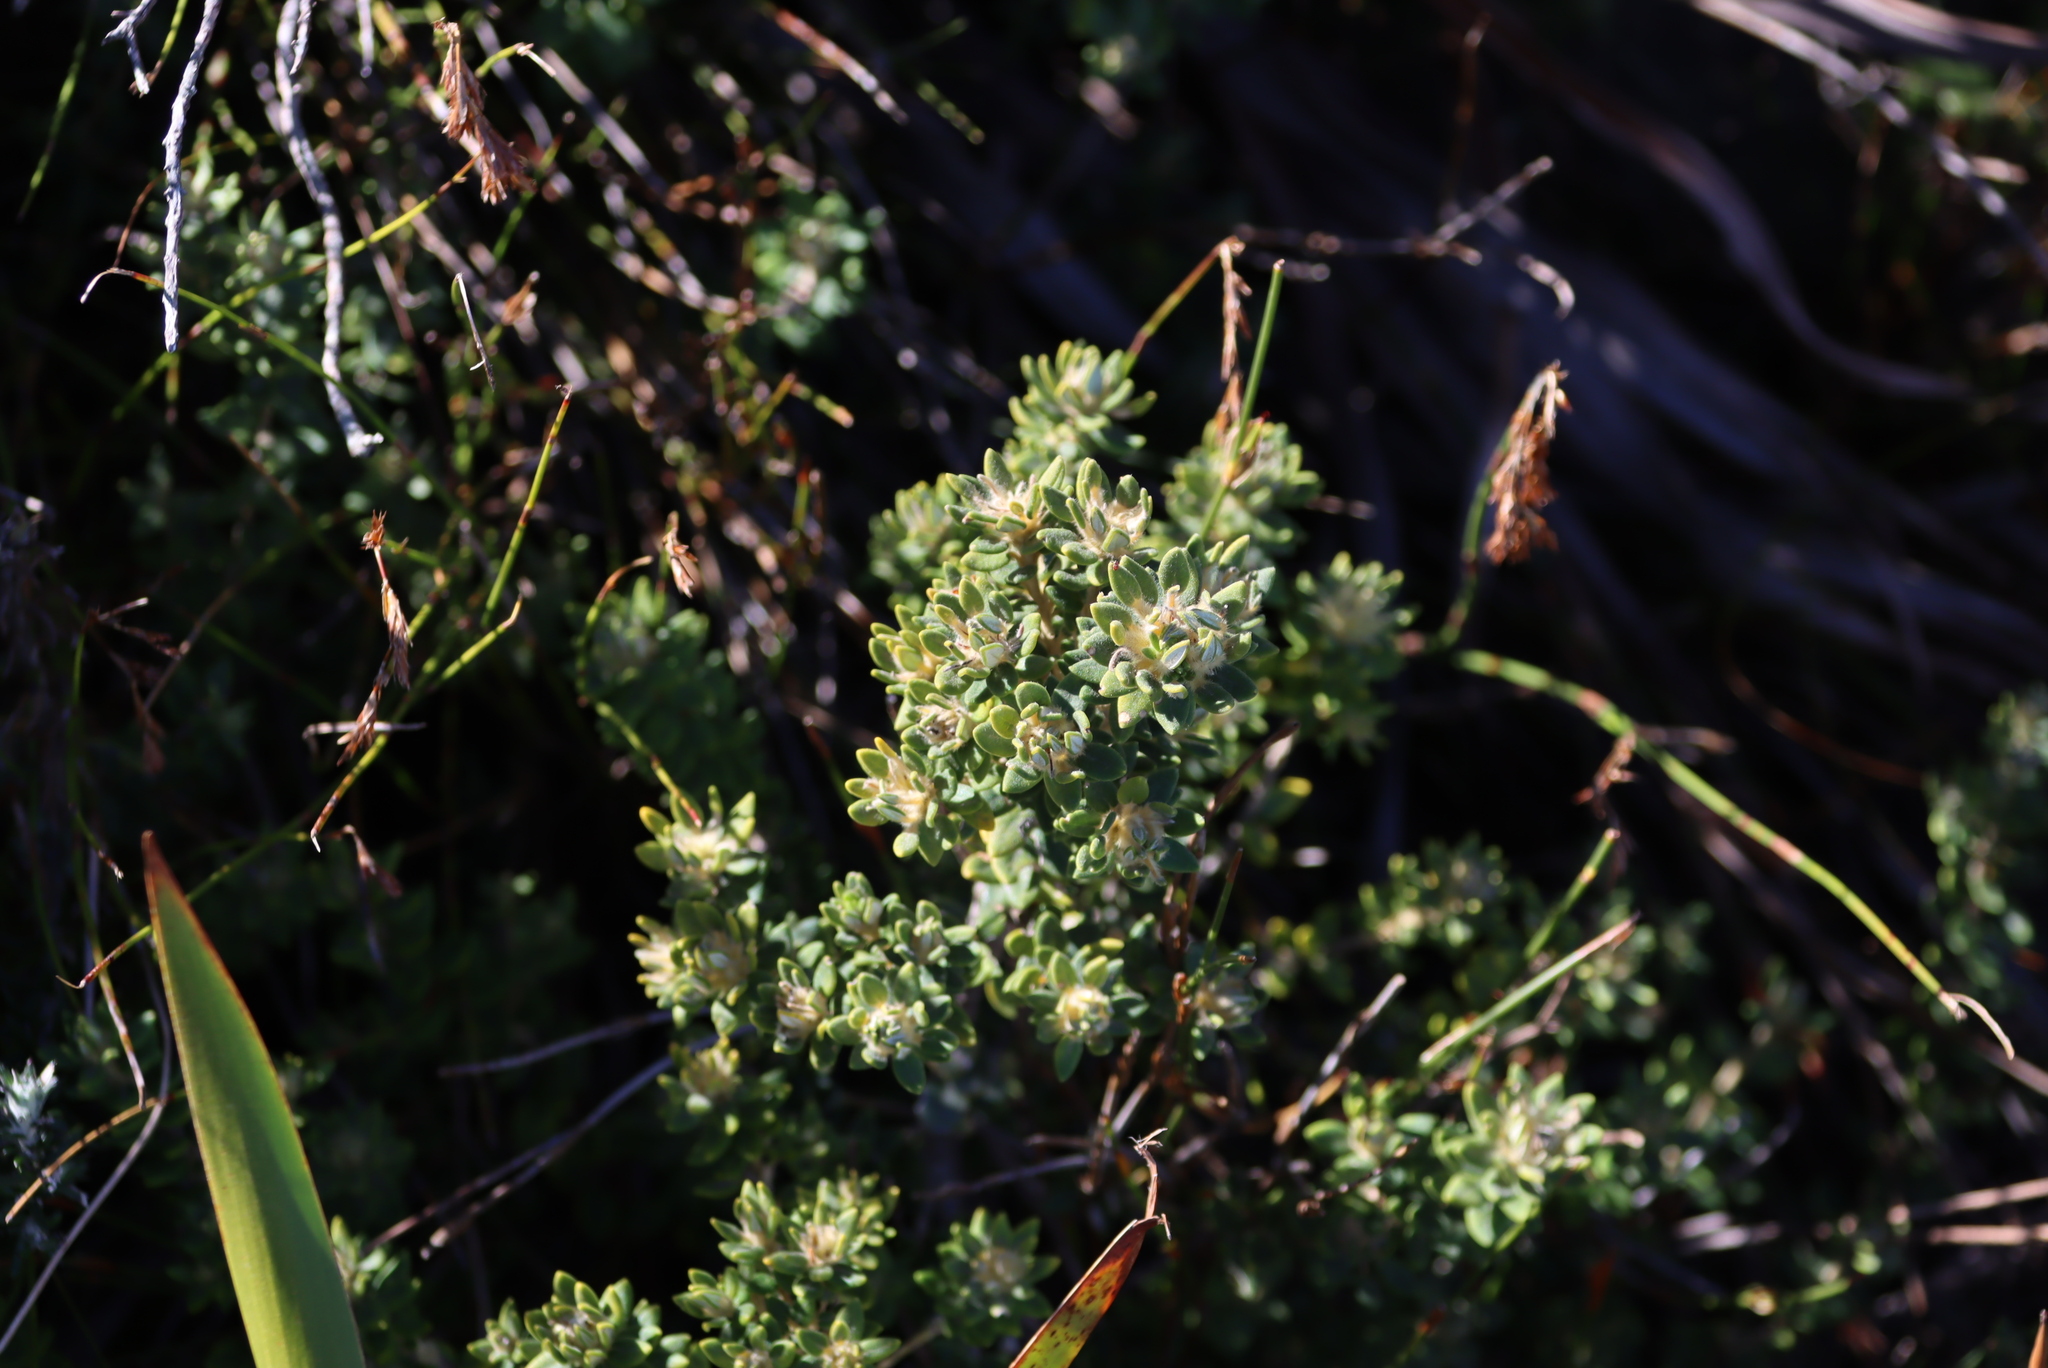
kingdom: Plantae
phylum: Tracheophyta
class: Magnoliopsida
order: Rosales
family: Rhamnaceae
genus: Phylica
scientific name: Phylica dioica
